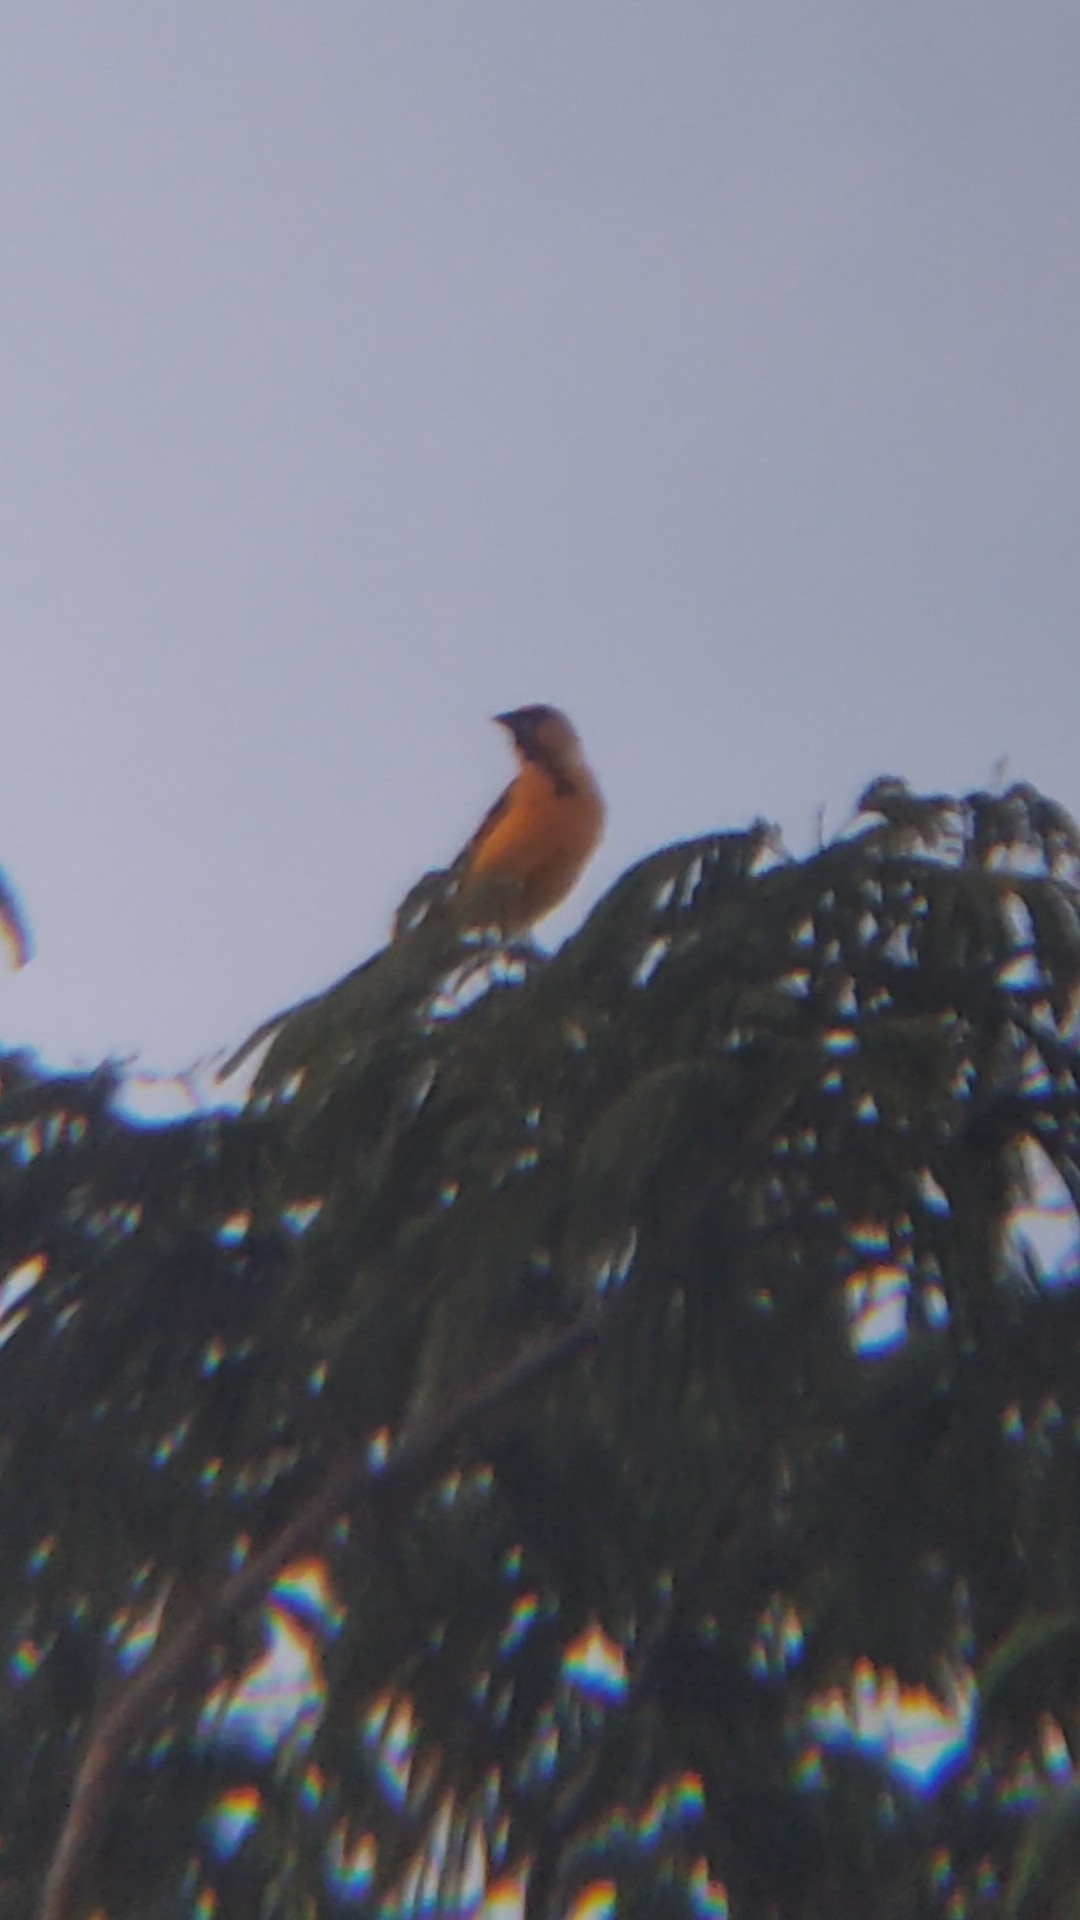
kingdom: Animalia
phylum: Chordata
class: Aves
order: Passeriformes
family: Icteridae
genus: Icterus
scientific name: Icterus gularis
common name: Altamira oriole
